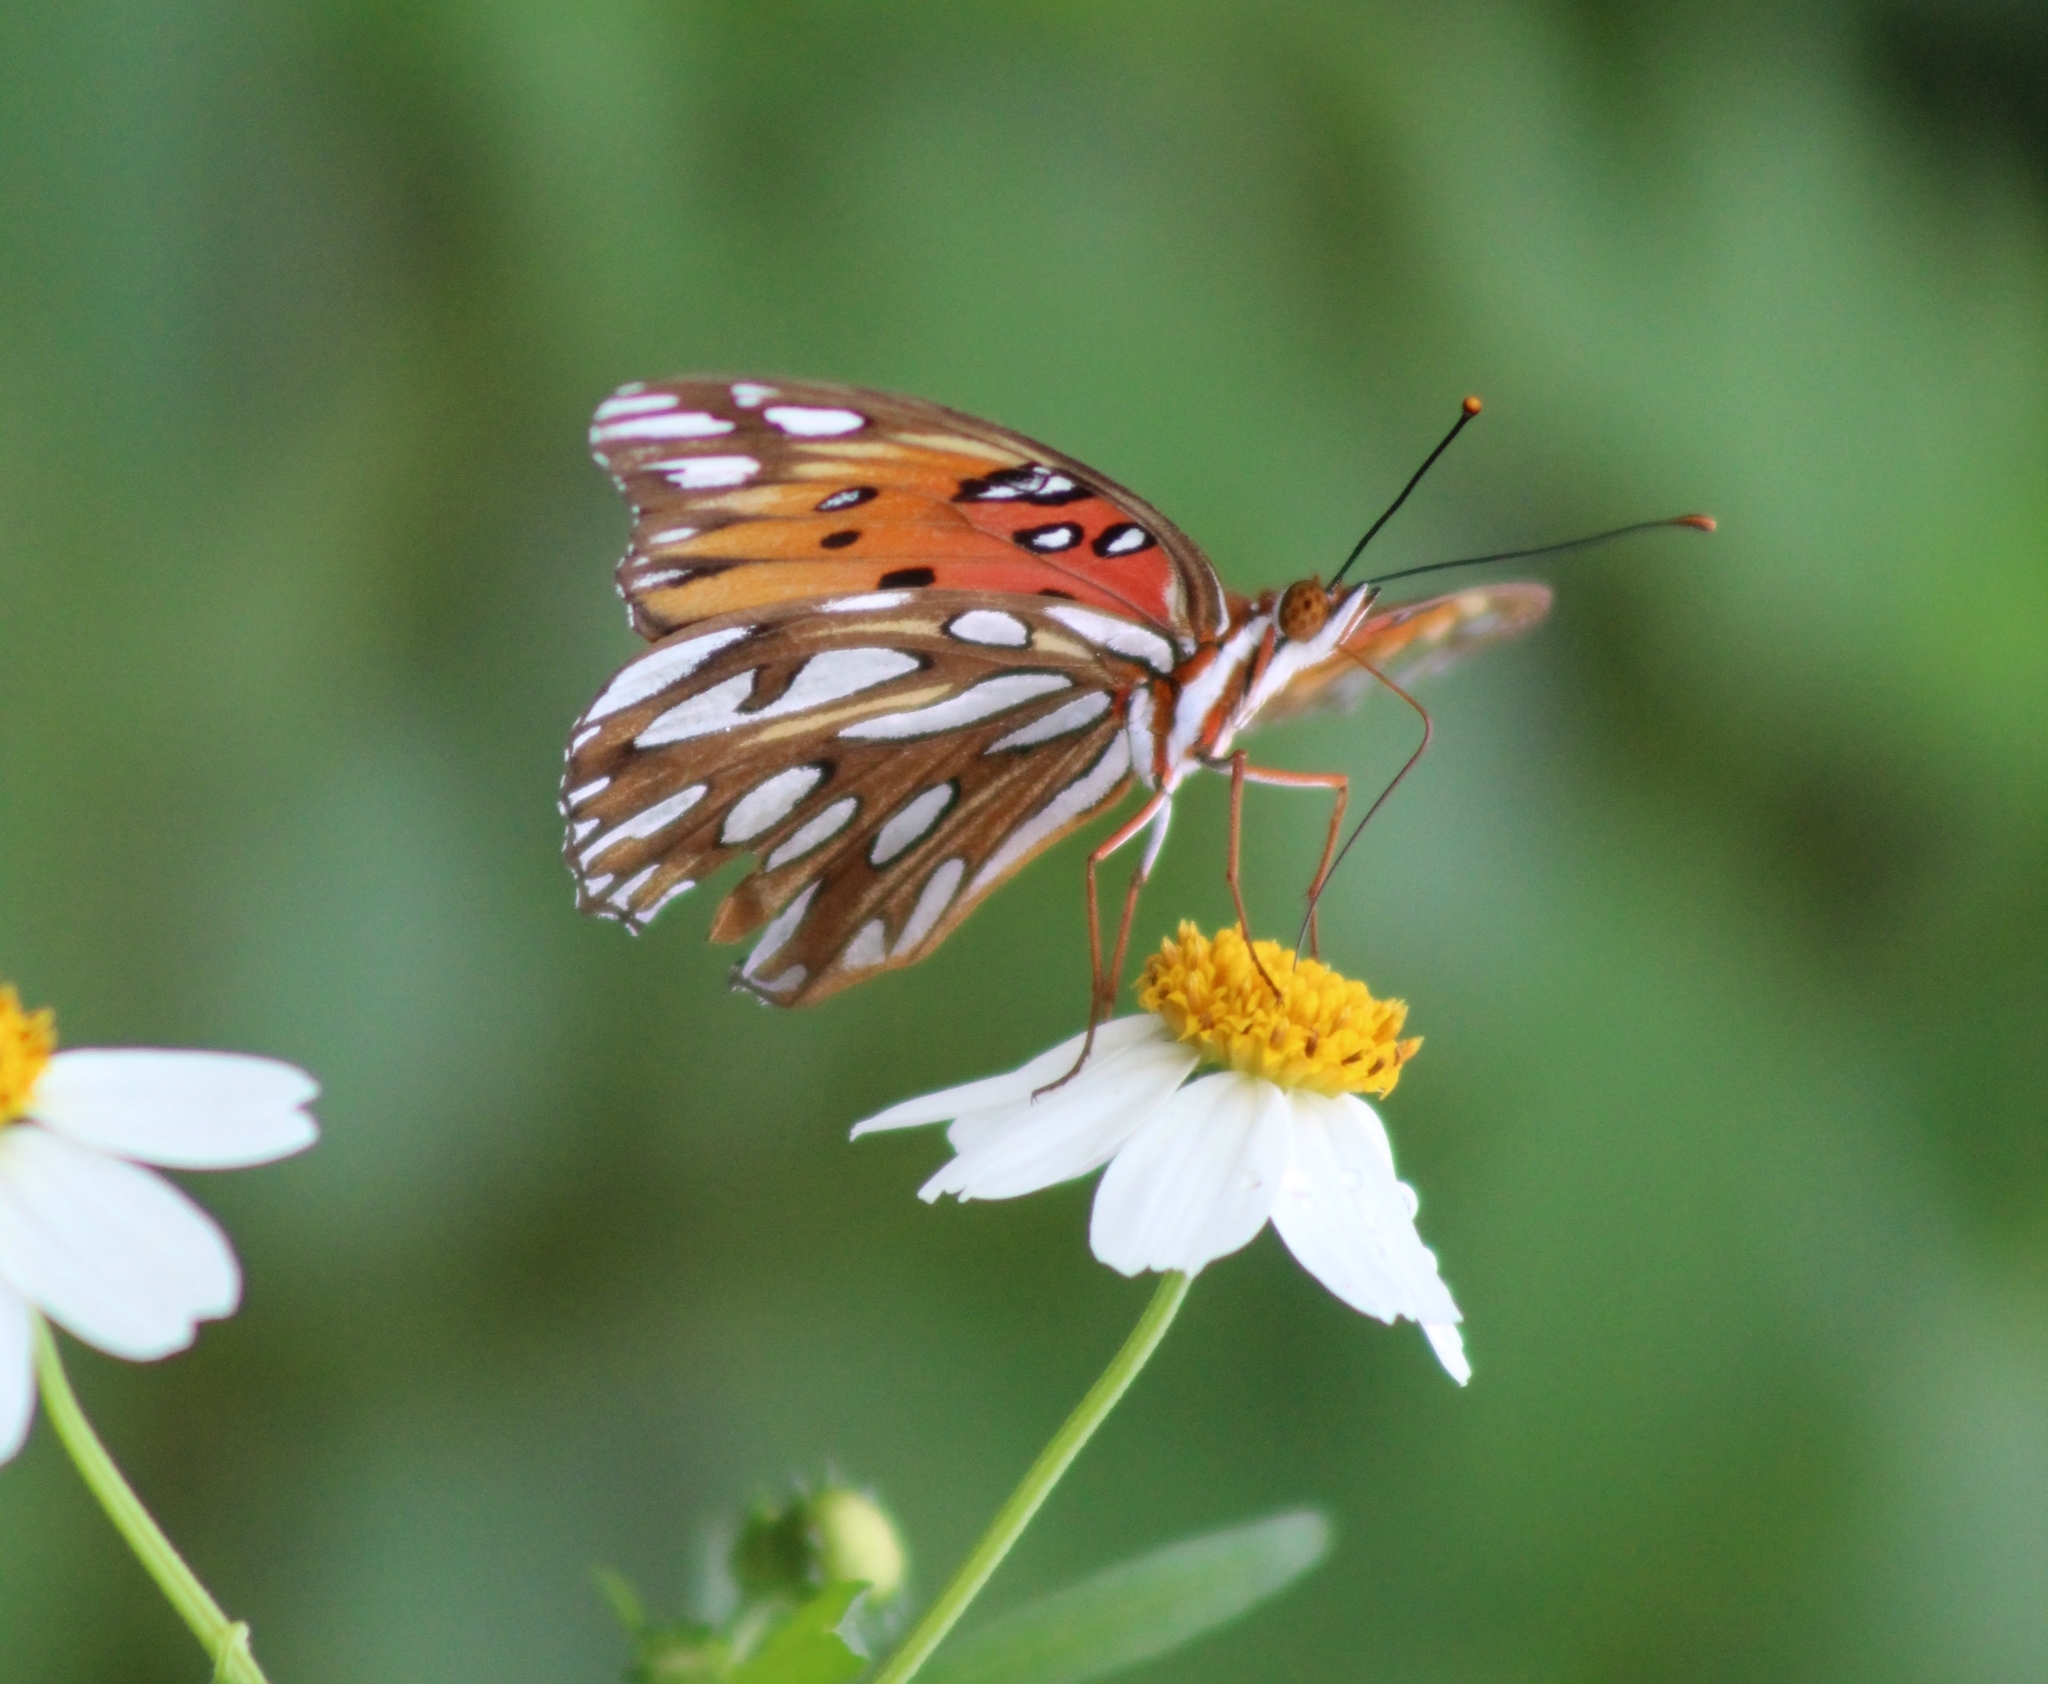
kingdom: Animalia
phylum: Arthropoda
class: Insecta
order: Lepidoptera
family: Nymphalidae
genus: Dione
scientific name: Dione vanillae
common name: Gulf fritillary
